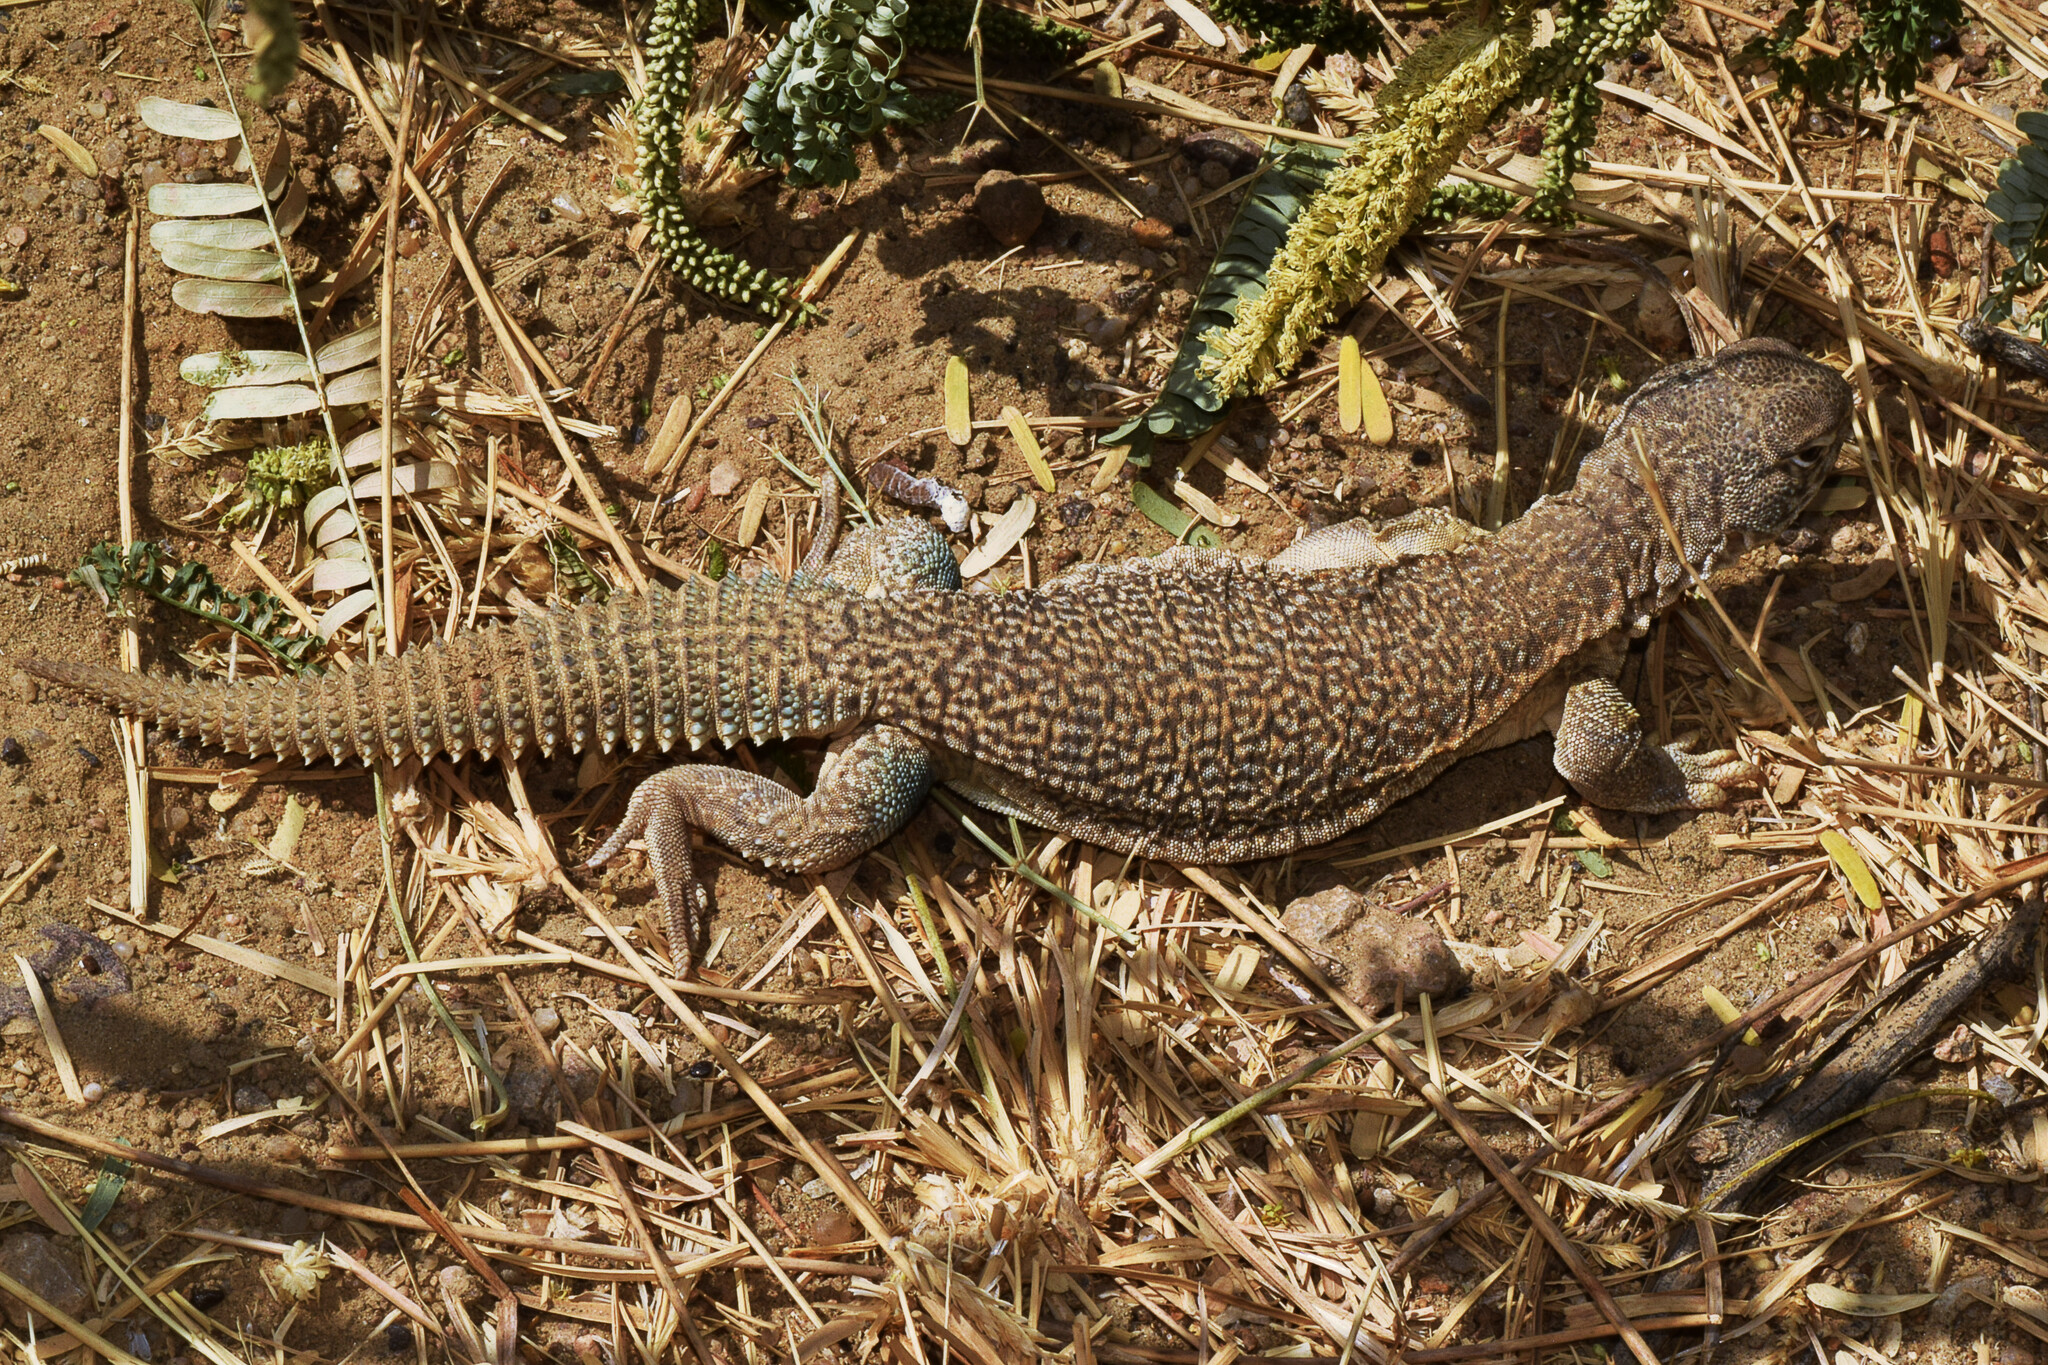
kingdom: Animalia
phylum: Chordata
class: Squamata
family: Agamidae
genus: Saara
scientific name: Saara hardwickii
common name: Hardwick's spiny-tailed lizard
